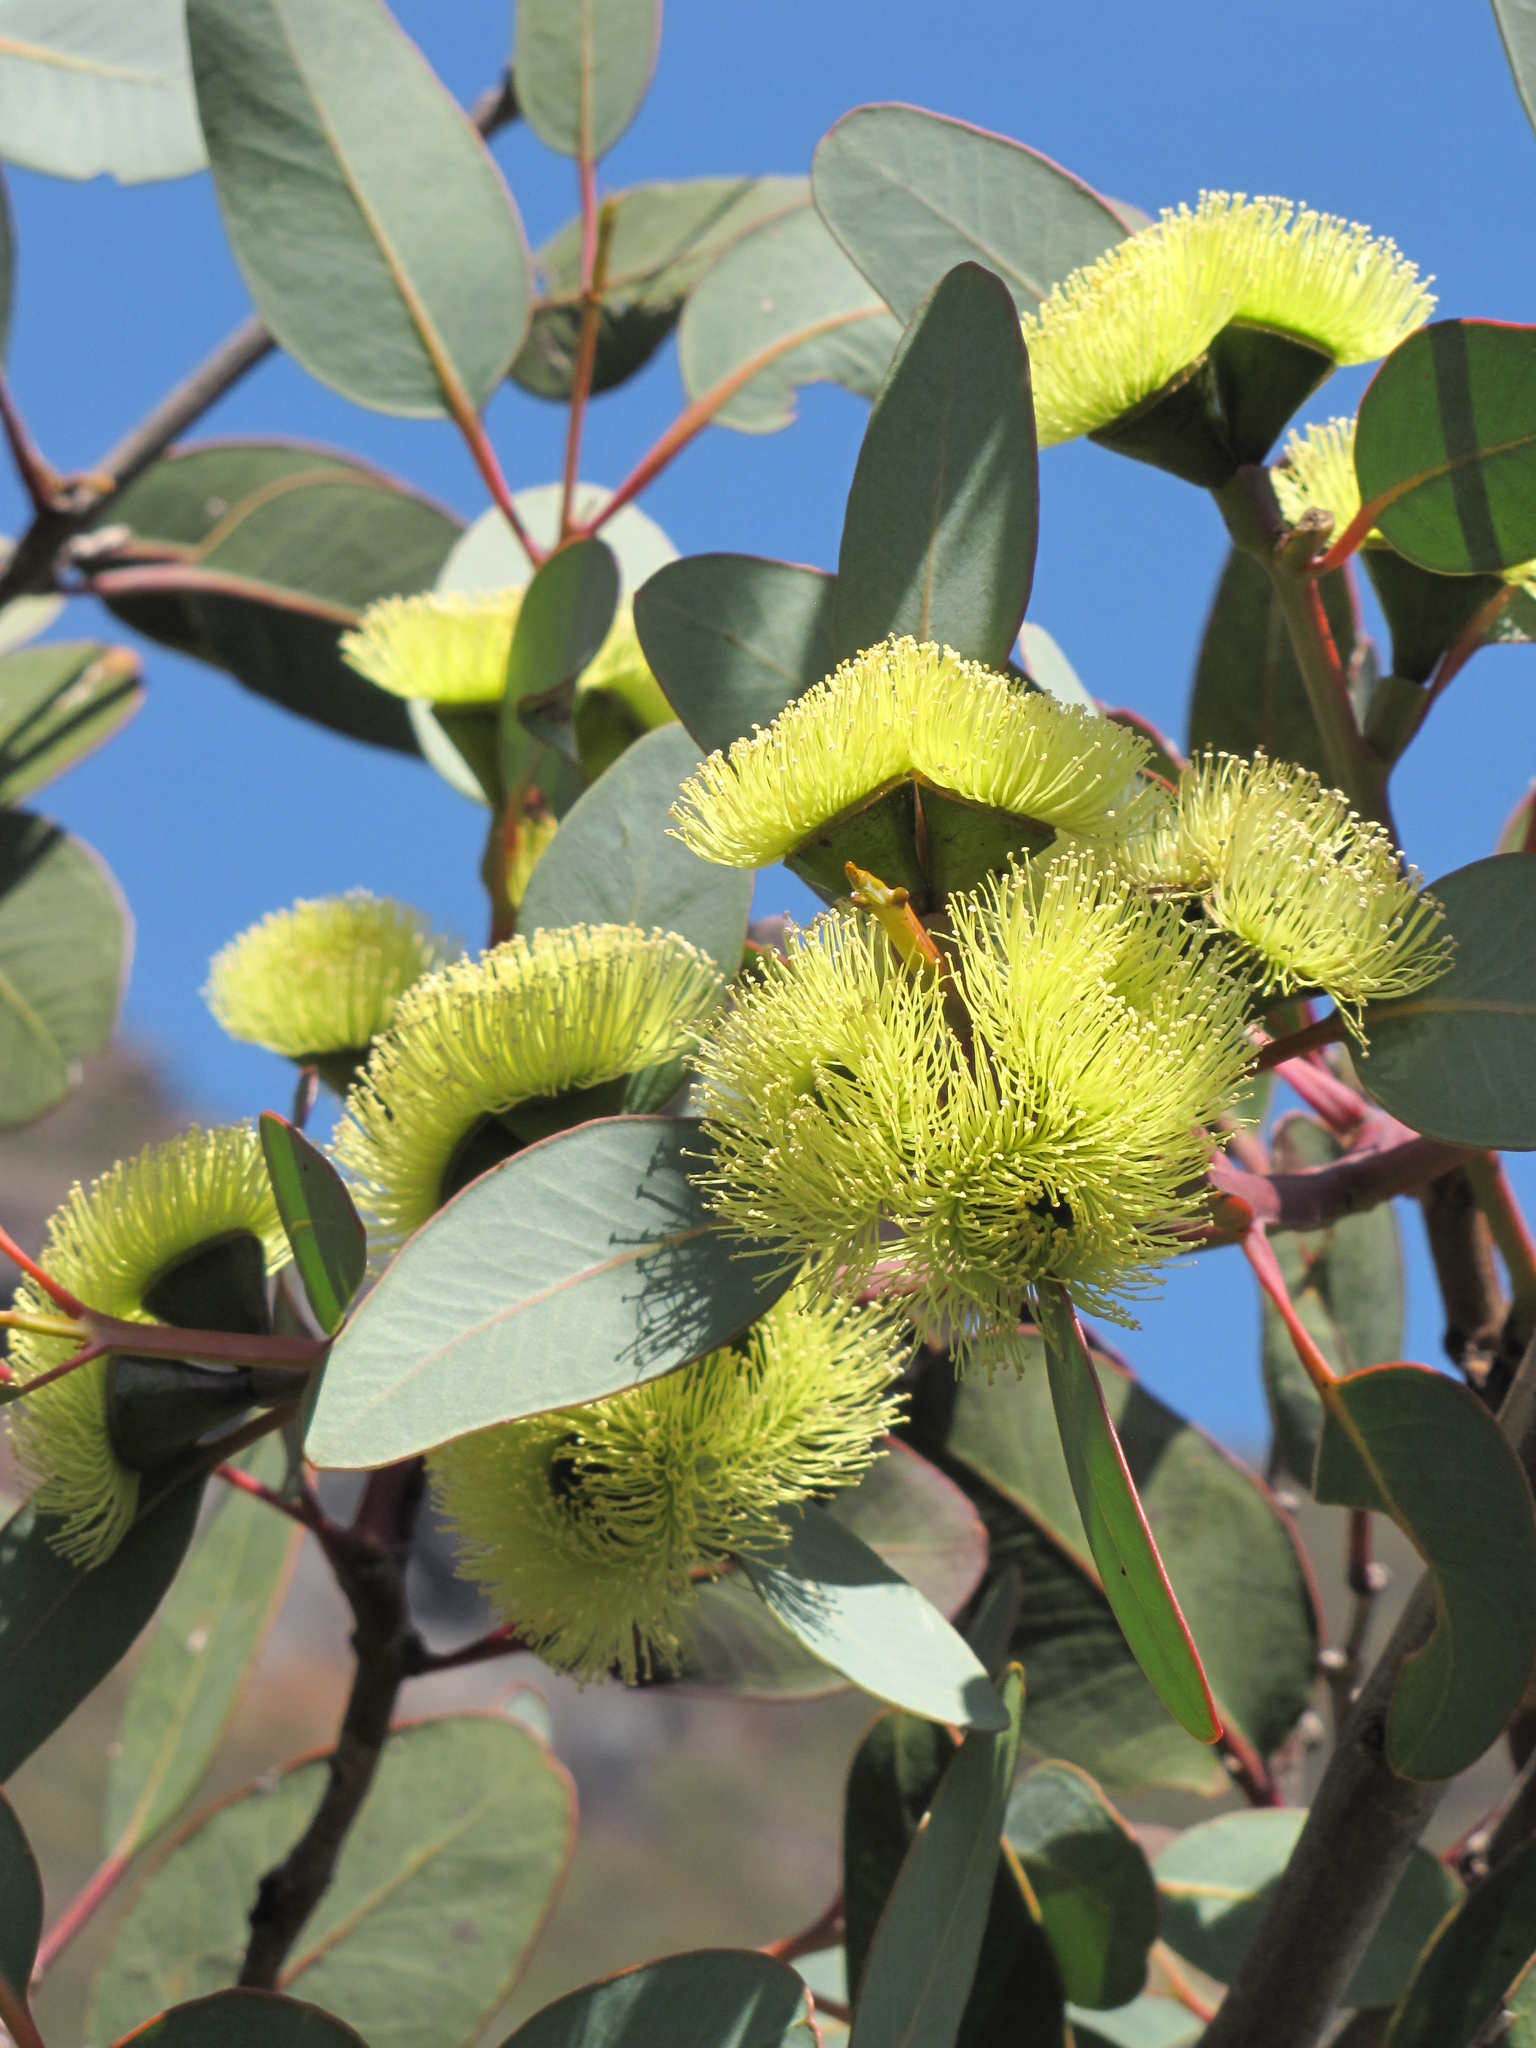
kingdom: Plantae
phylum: Tracheophyta
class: Magnoliopsida
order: Myrtales
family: Myrtaceae
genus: Eucalyptus
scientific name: Eucalyptus preissiana
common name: Stirling range mallee
